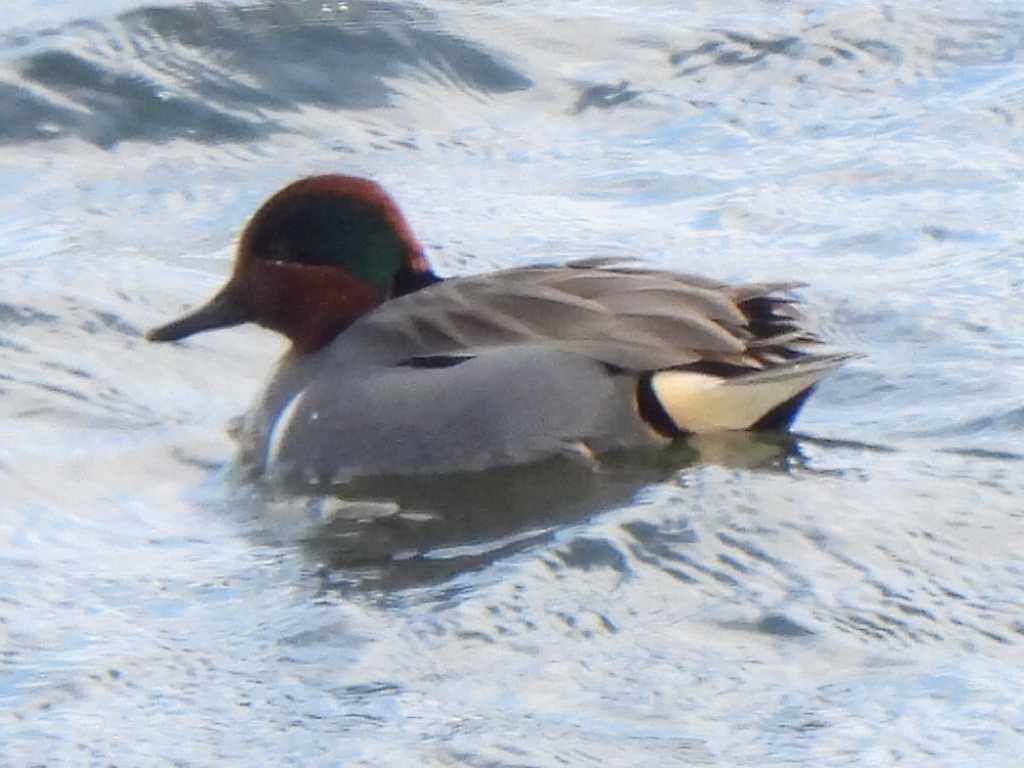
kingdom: Animalia
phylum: Chordata
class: Aves
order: Anseriformes
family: Anatidae
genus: Anas
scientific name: Anas crecca
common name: Eurasian teal
